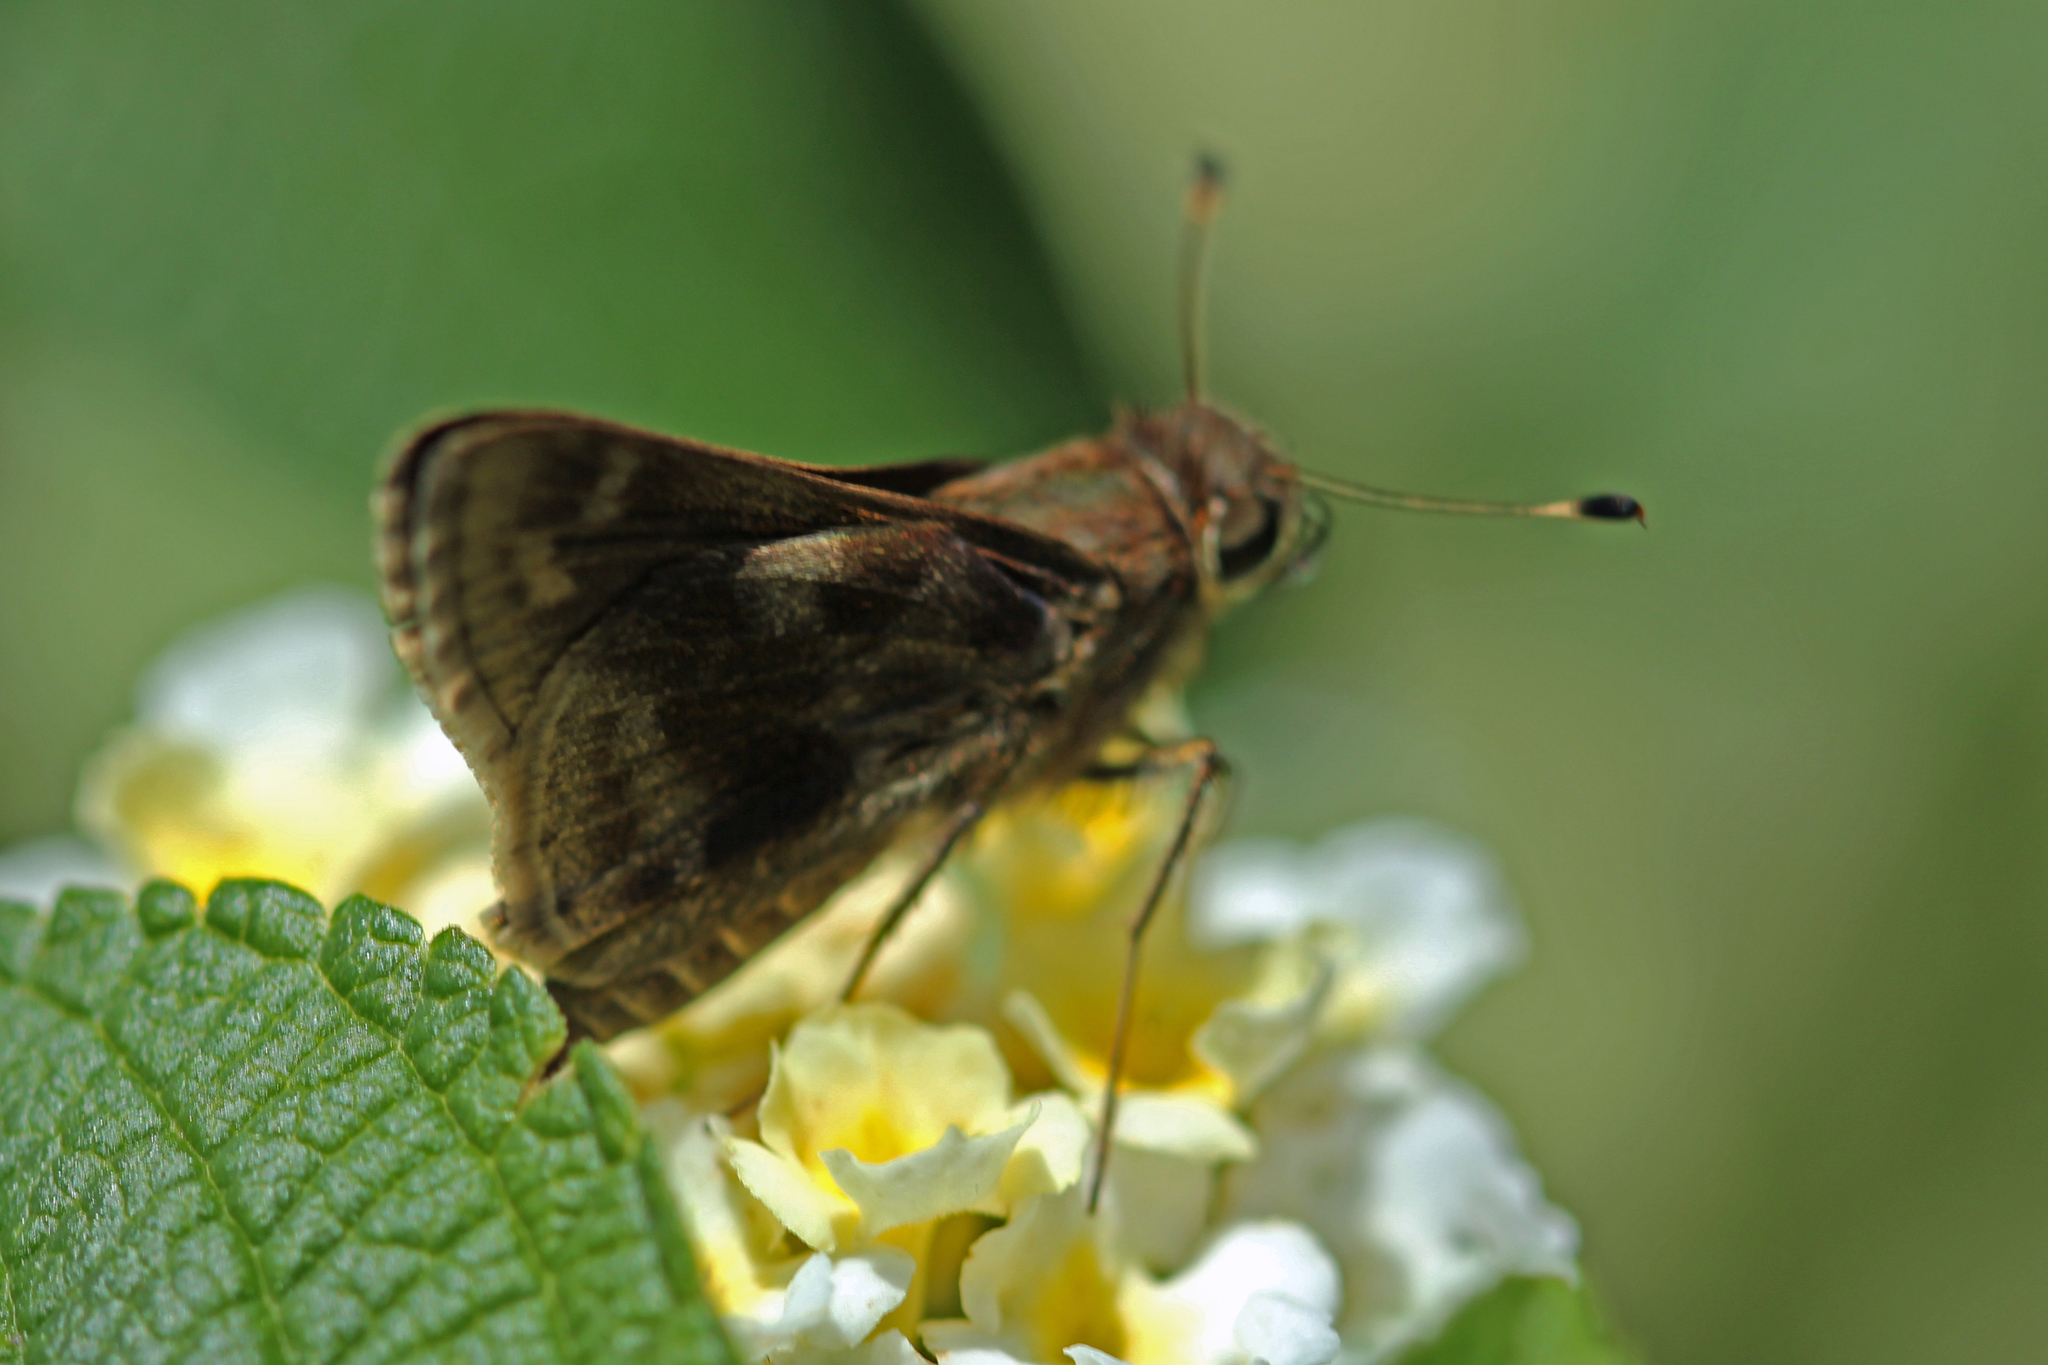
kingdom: Animalia
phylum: Arthropoda
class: Insecta
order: Lepidoptera
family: Hesperiidae
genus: Pompeius
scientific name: Pompeius pompeius
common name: Pompeius skipper
